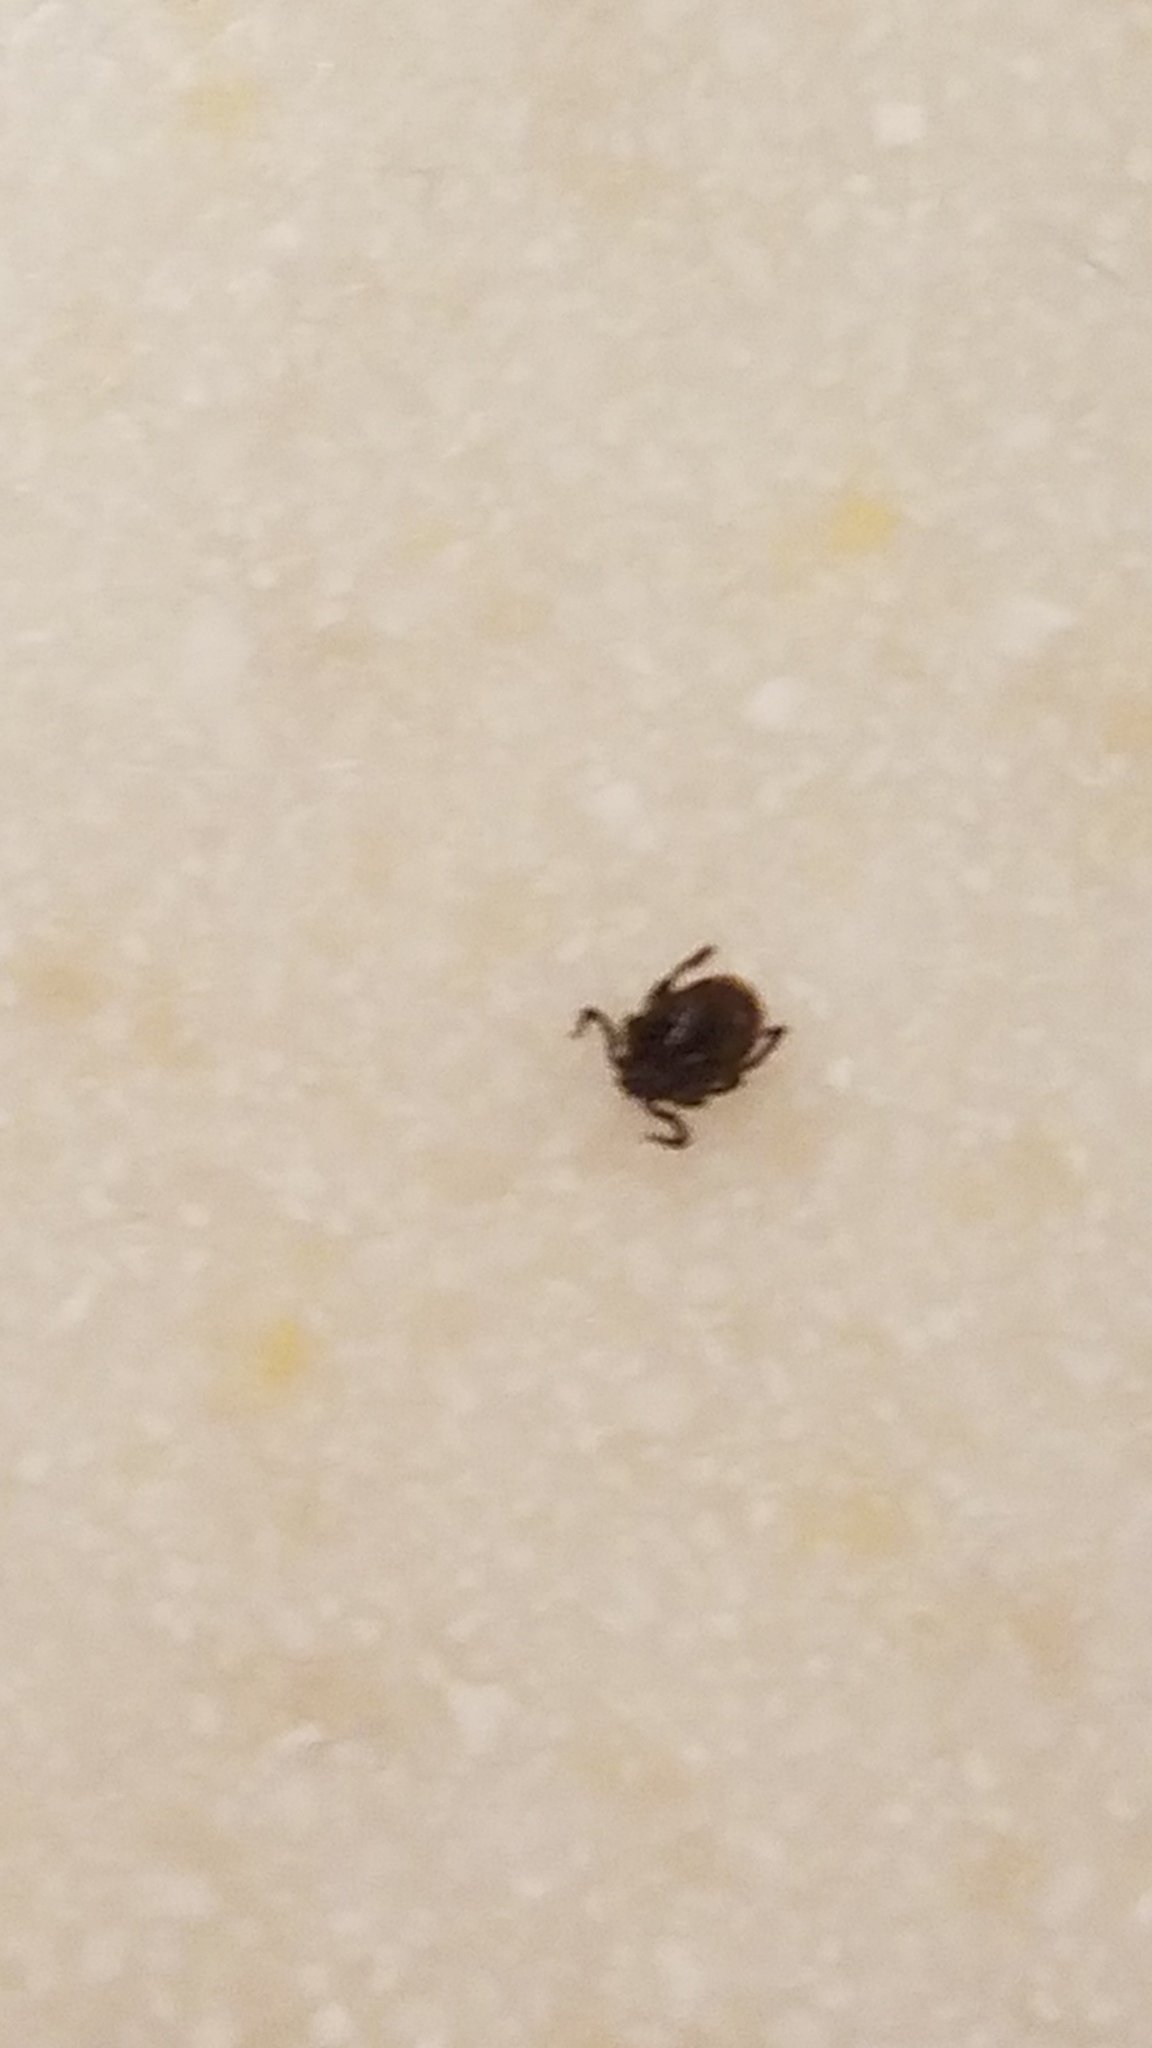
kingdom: Animalia
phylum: Arthropoda
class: Arachnida
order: Ixodida
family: Ixodidae
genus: Ixodes
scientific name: Ixodes scapularis
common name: Black legged tick
